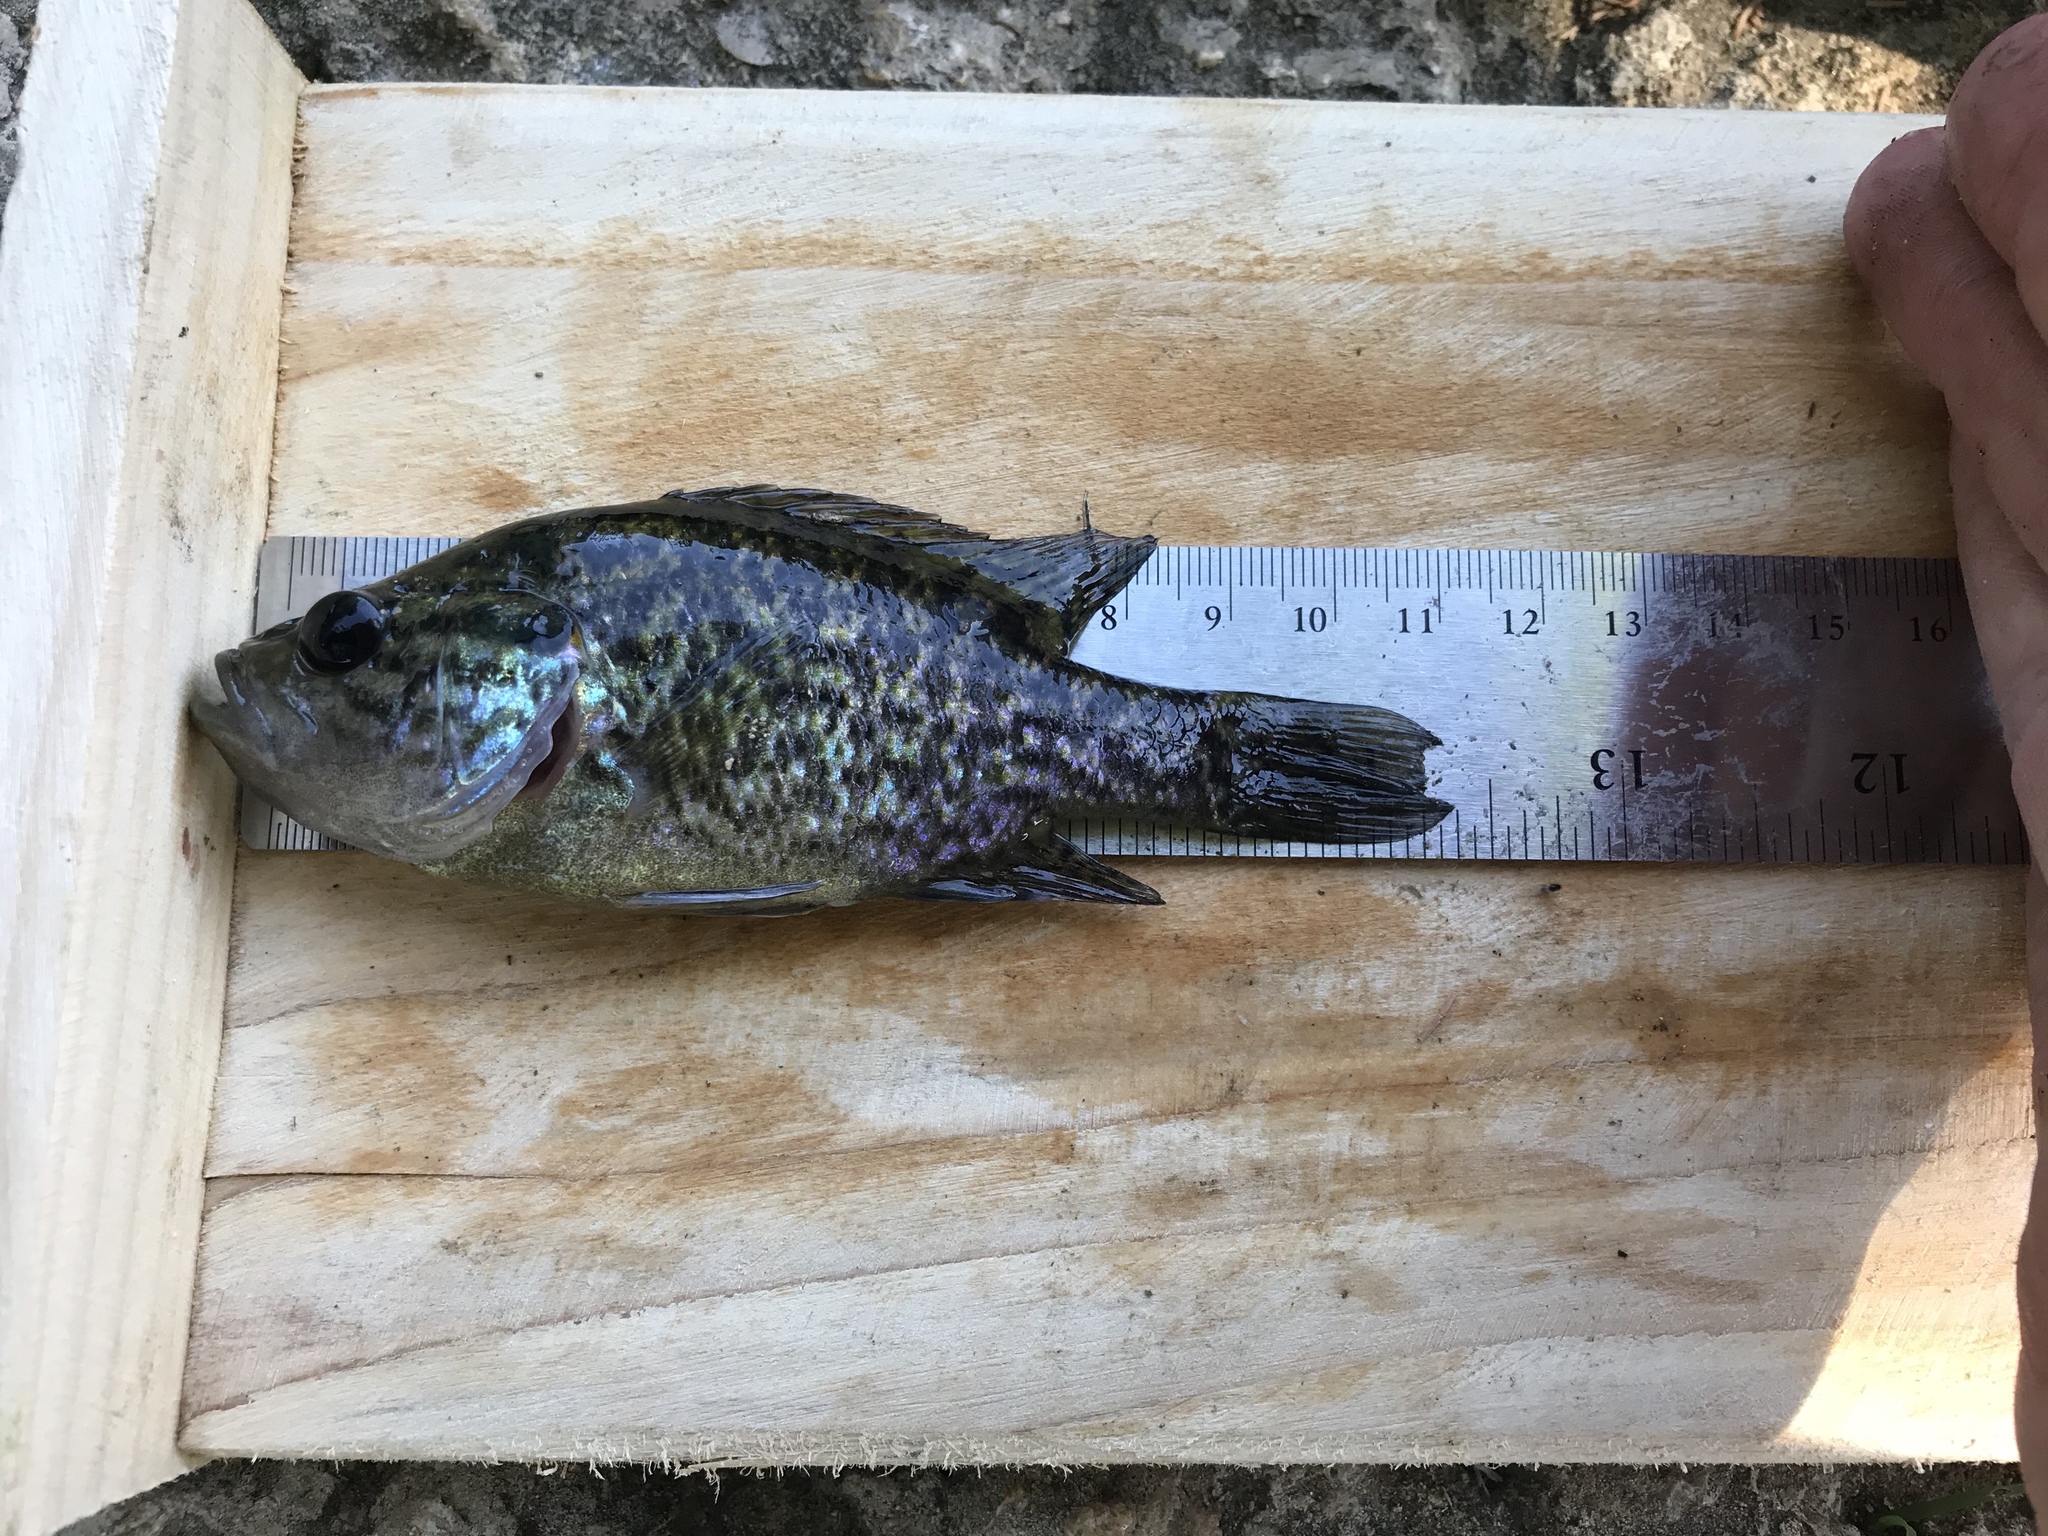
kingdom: Animalia
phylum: Chordata
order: Perciformes
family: Centrarchidae
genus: Lepomis
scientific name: Lepomis gulosus
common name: Warmouth
